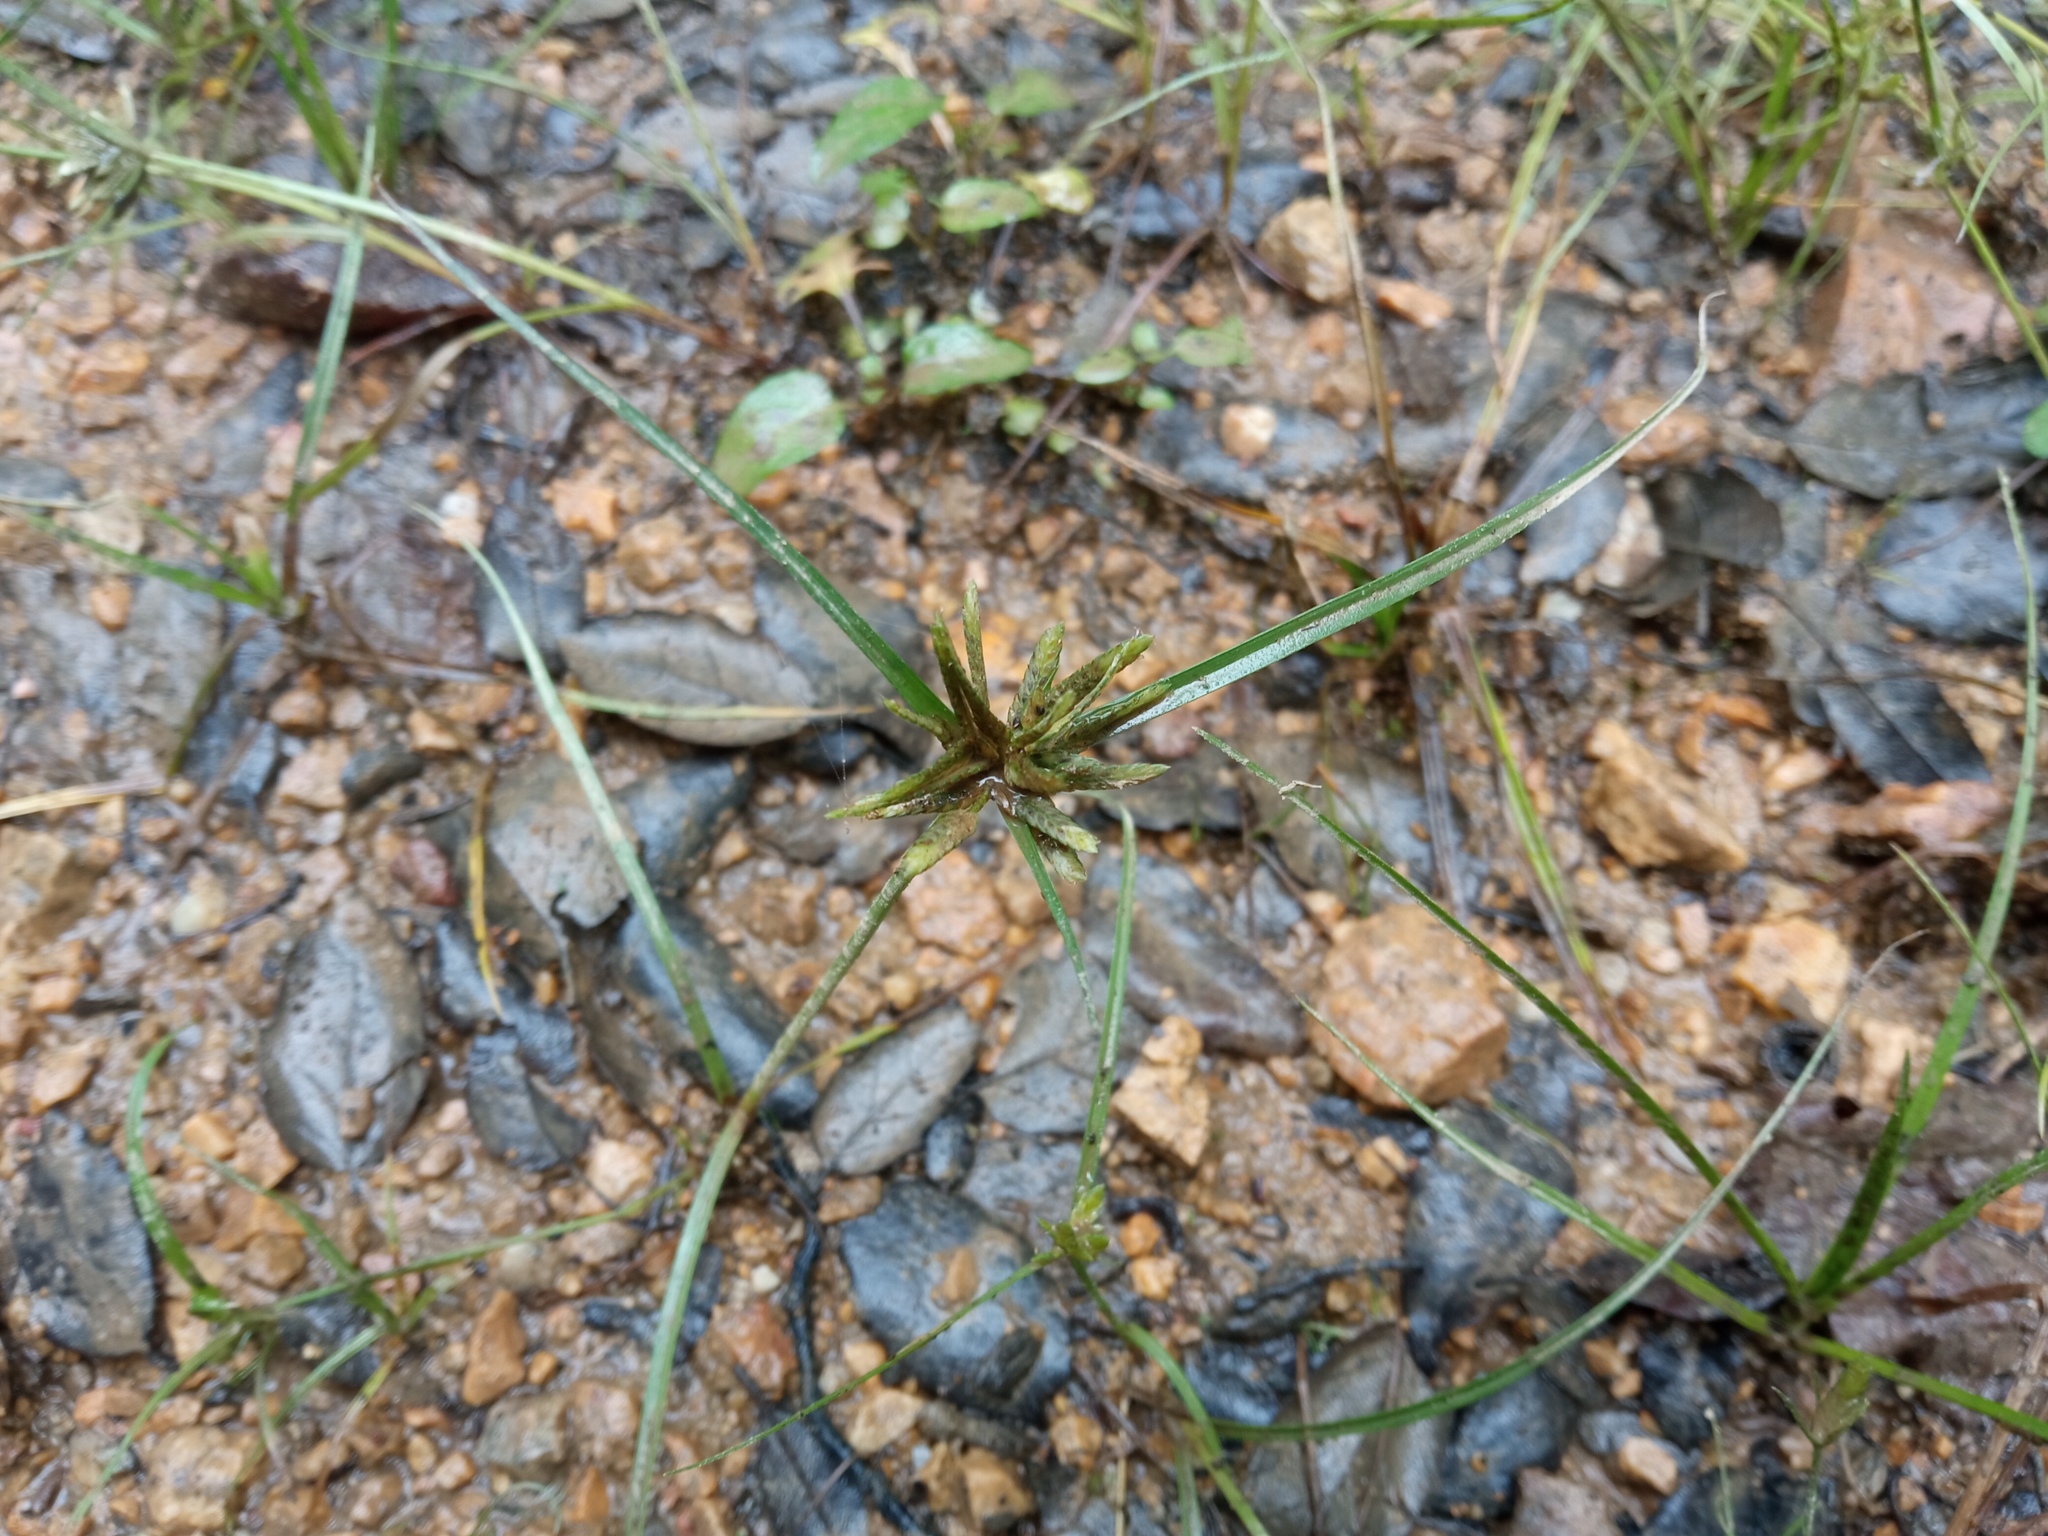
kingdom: Plantae
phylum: Tracheophyta
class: Liliopsida
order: Poales
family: Cyperaceae
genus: Cyperus
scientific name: Cyperus flavescens
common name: Yellow galingale
